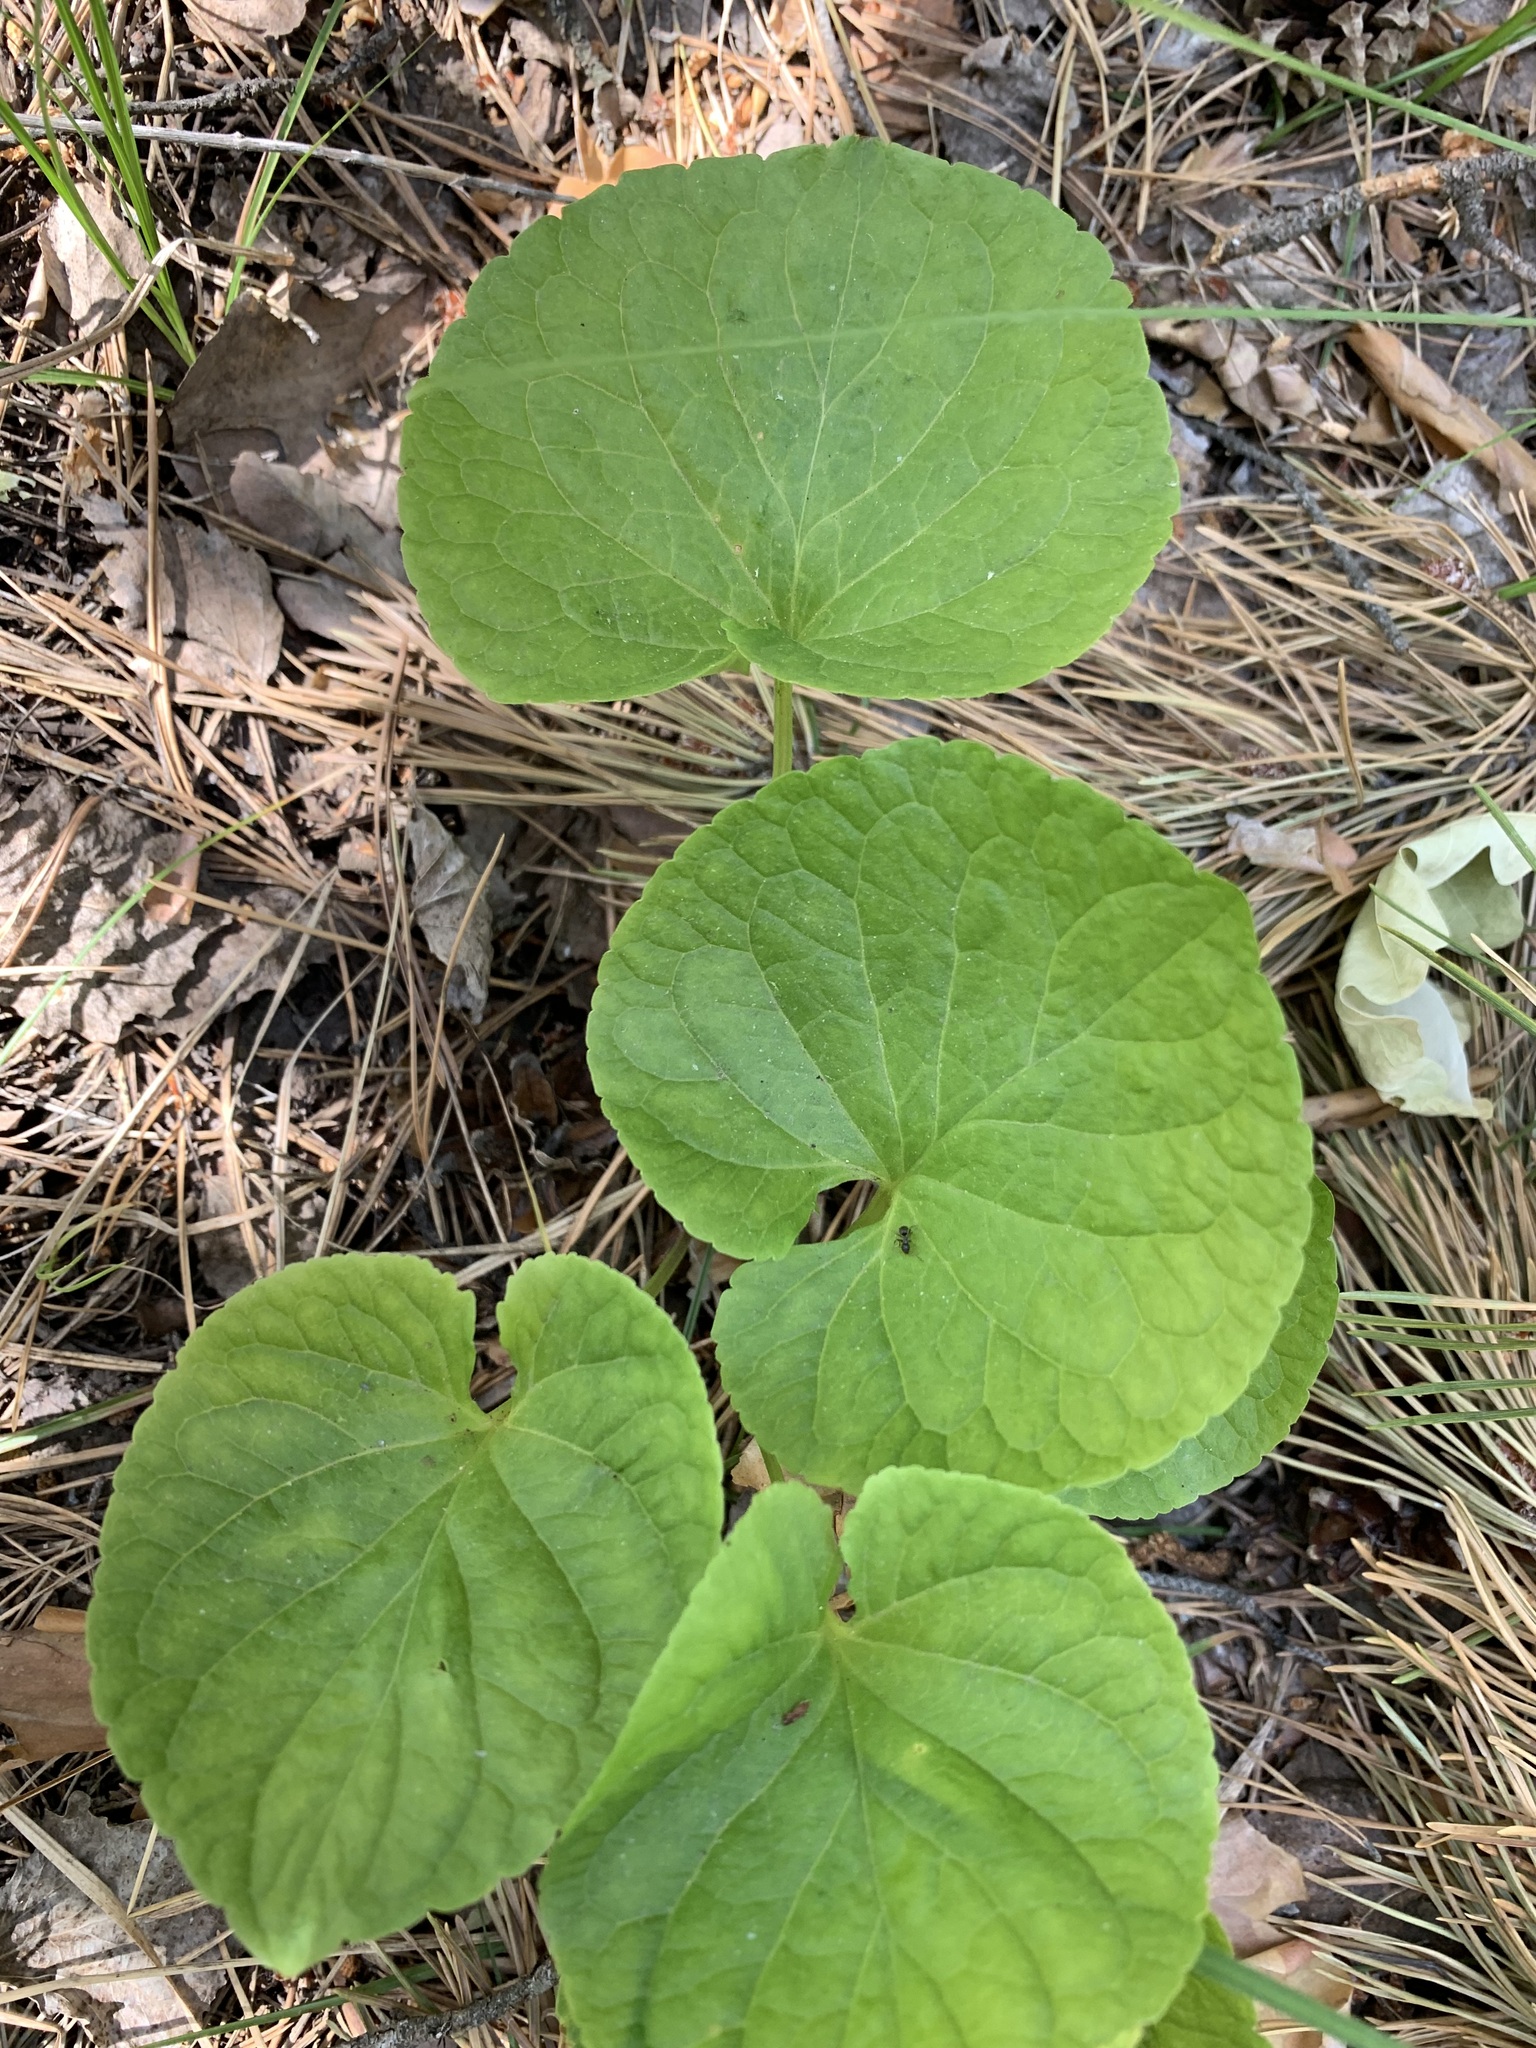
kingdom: Plantae
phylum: Tracheophyta
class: Magnoliopsida
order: Malpighiales
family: Violaceae
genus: Viola
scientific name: Viola mirabilis
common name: Wonder violet
